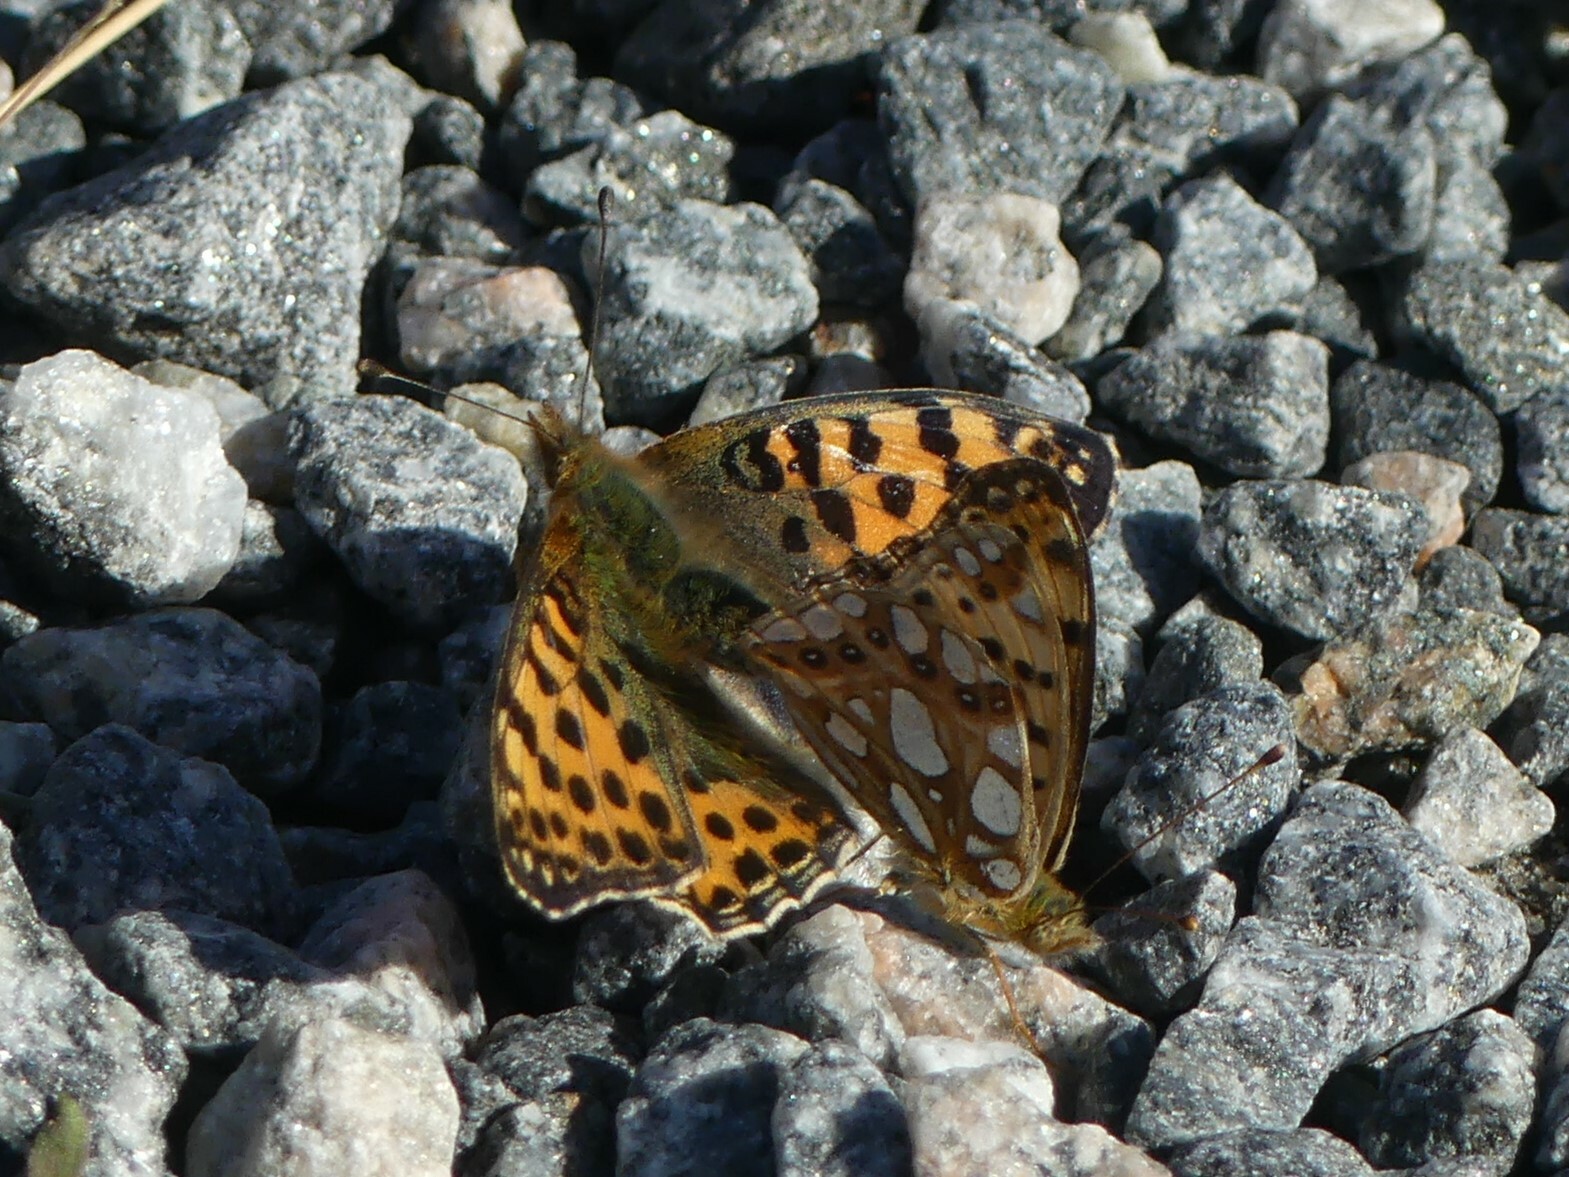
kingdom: Animalia
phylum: Arthropoda
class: Insecta
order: Lepidoptera
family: Nymphalidae
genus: Issoria
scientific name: Issoria lathonia
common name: Queen of spain fritillary
